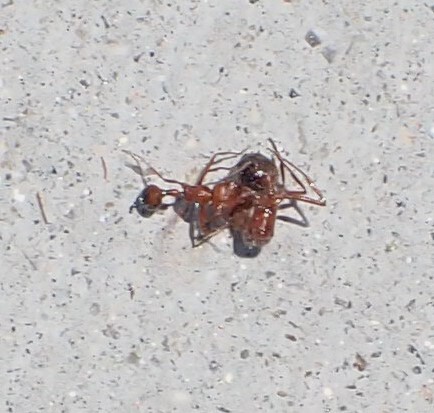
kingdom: Animalia
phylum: Arthropoda
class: Insecta
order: Hymenoptera
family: Formicidae
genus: Pogonomyrmex
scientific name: Pogonomyrmex californicus
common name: California harvester ant
